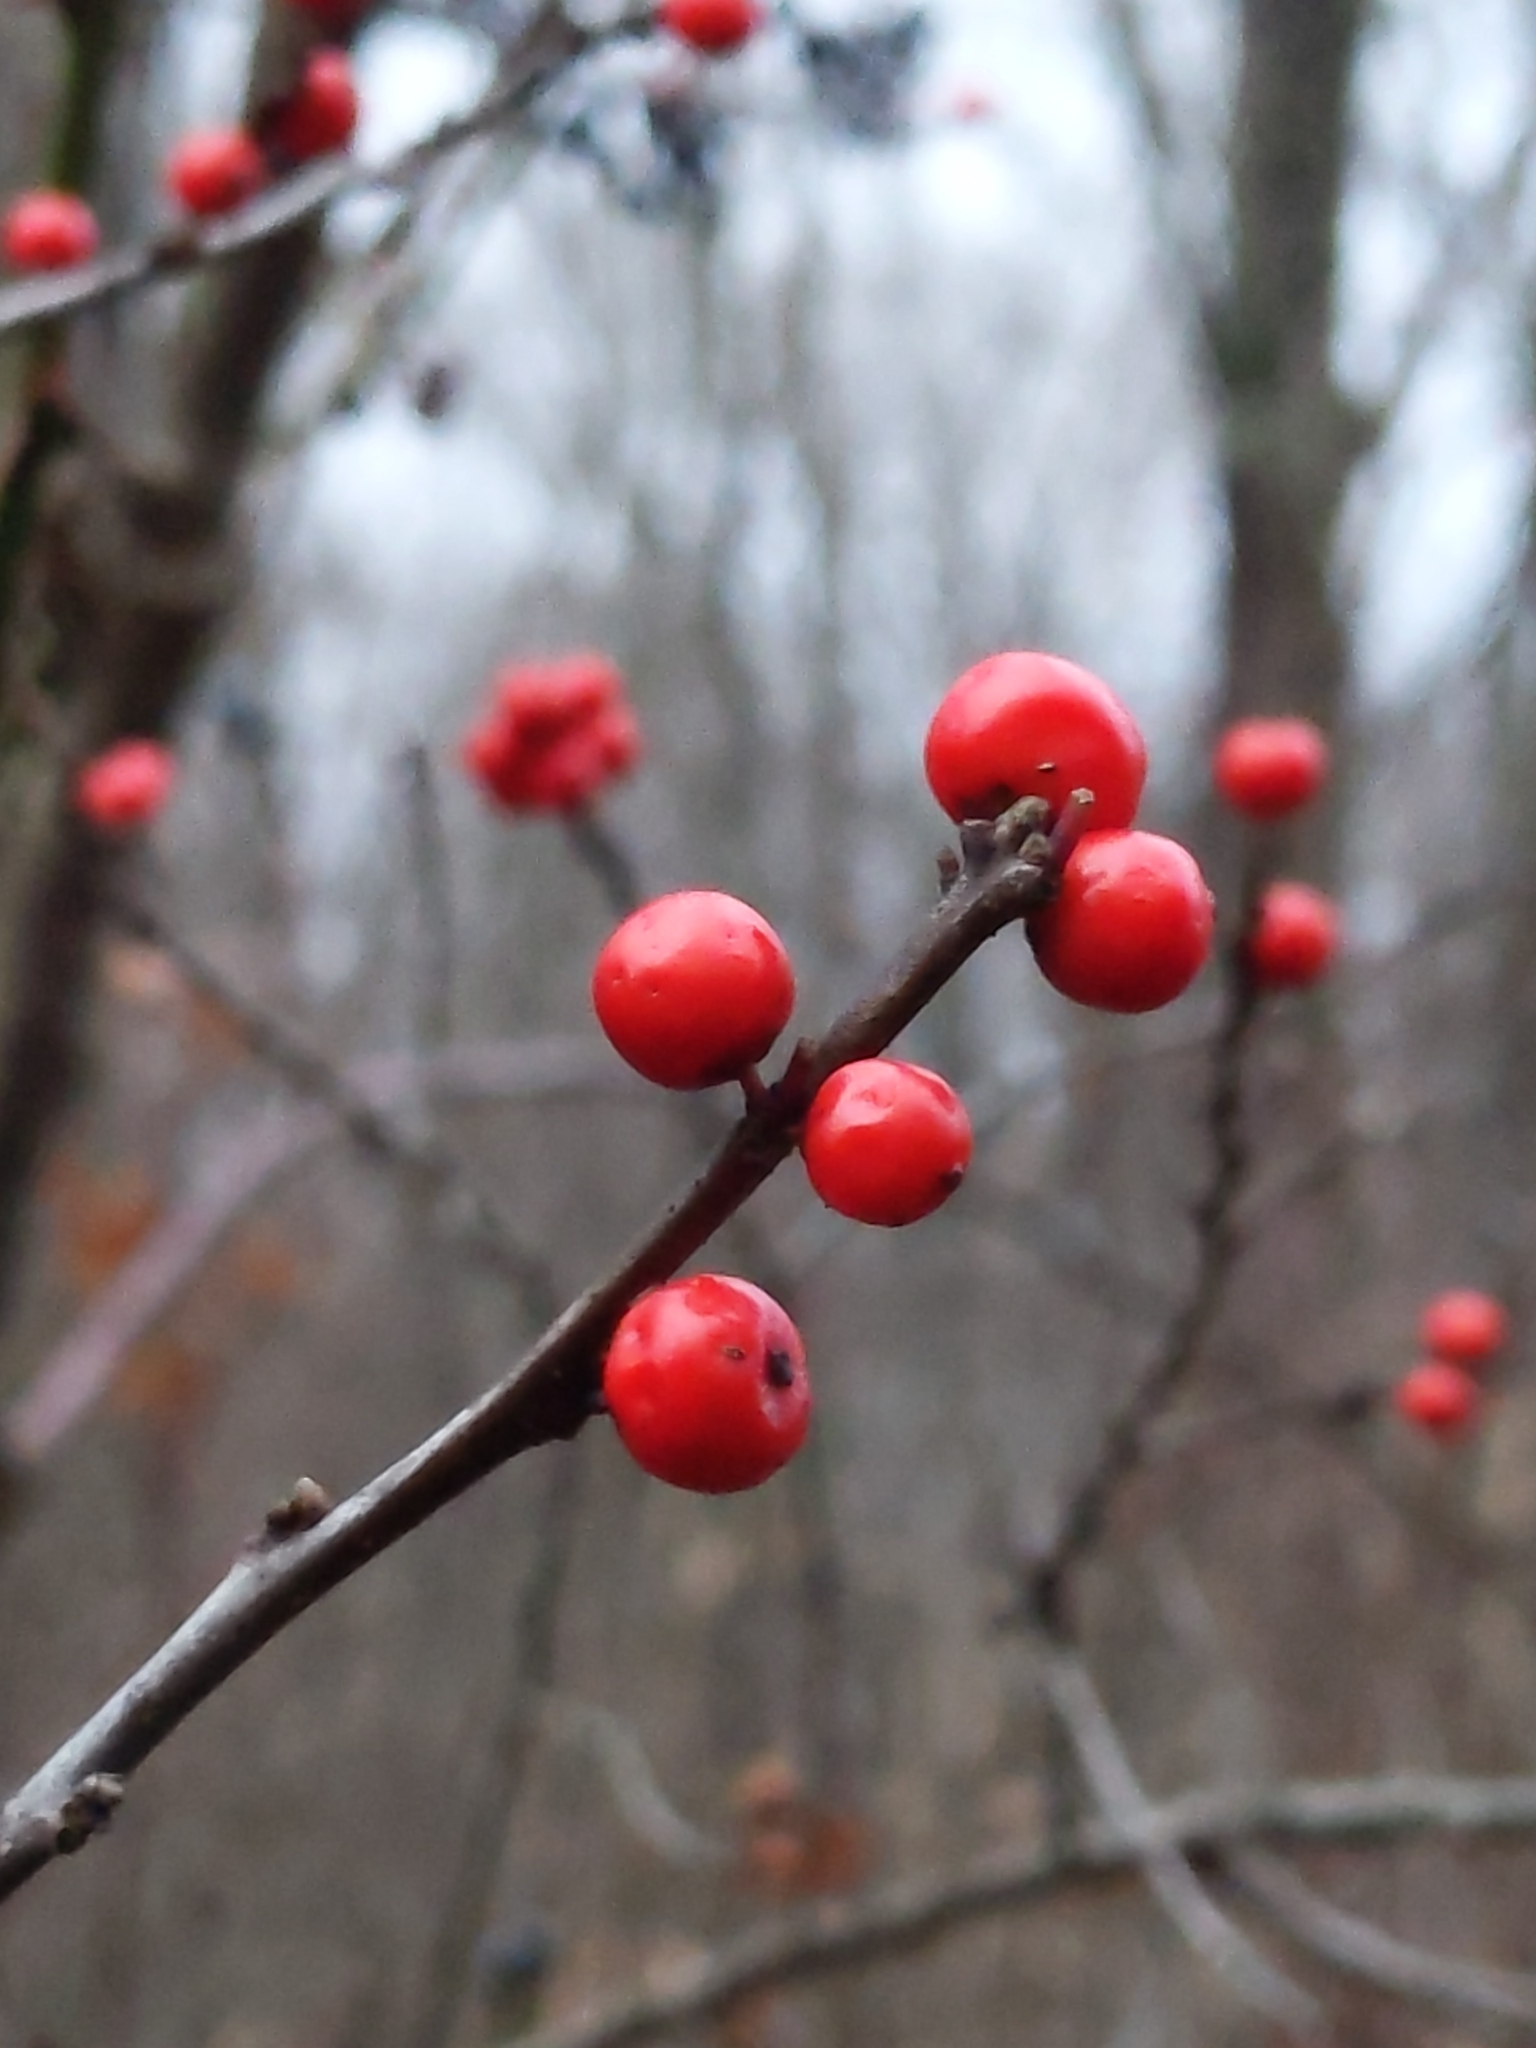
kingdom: Plantae
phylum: Tracheophyta
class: Magnoliopsida
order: Aquifoliales
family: Aquifoliaceae
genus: Ilex
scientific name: Ilex verticillata
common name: Virginia winterberry
